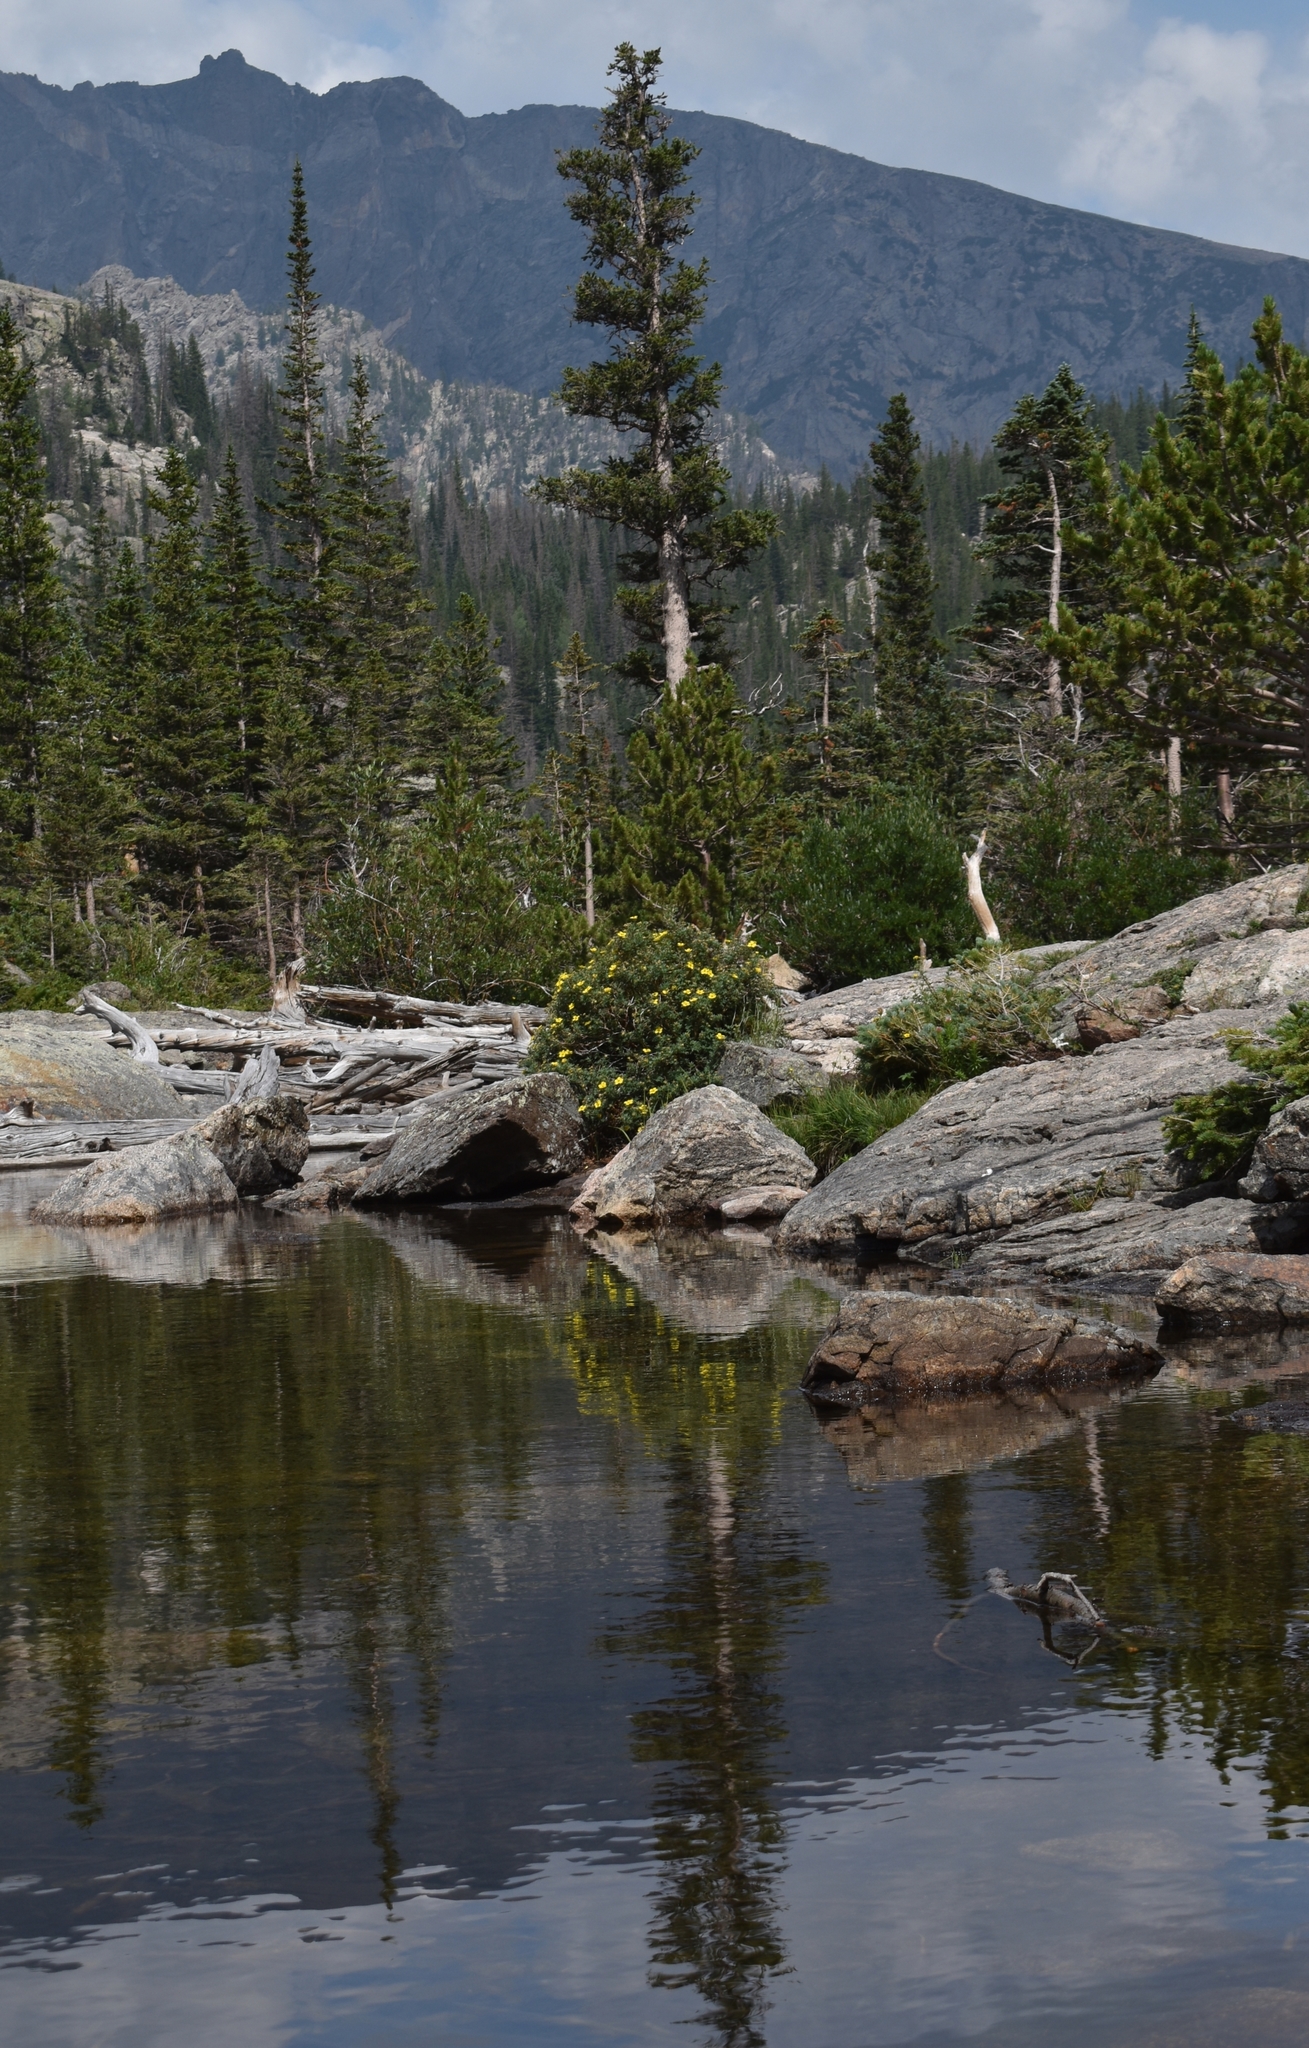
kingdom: Plantae
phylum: Tracheophyta
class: Magnoliopsida
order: Rosales
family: Rosaceae
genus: Dasiphora
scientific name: Dasiphora fruticosa
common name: Shrubby cinquefoil
